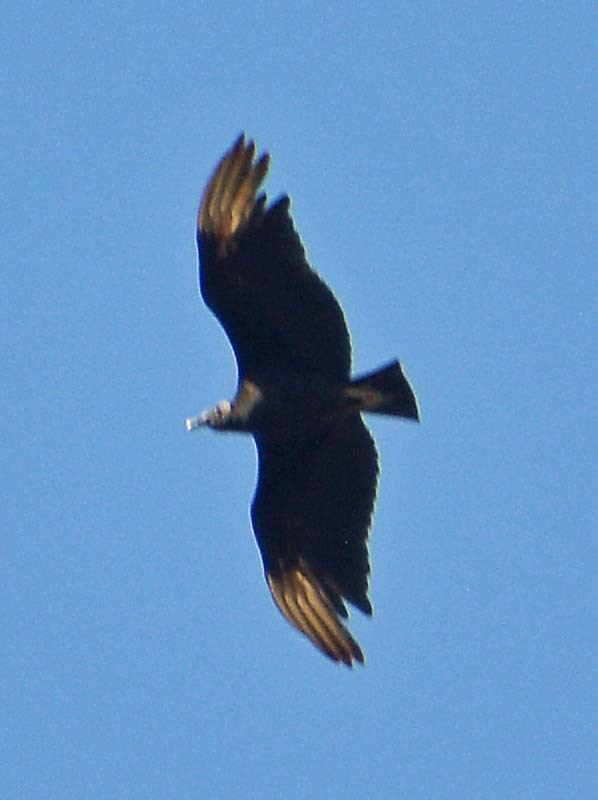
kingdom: Animalia
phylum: Chordata
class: Aves
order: Accipitriformes
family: Cathartidae
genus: Coragyps
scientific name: Coragyps atratus
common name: Black vulture
